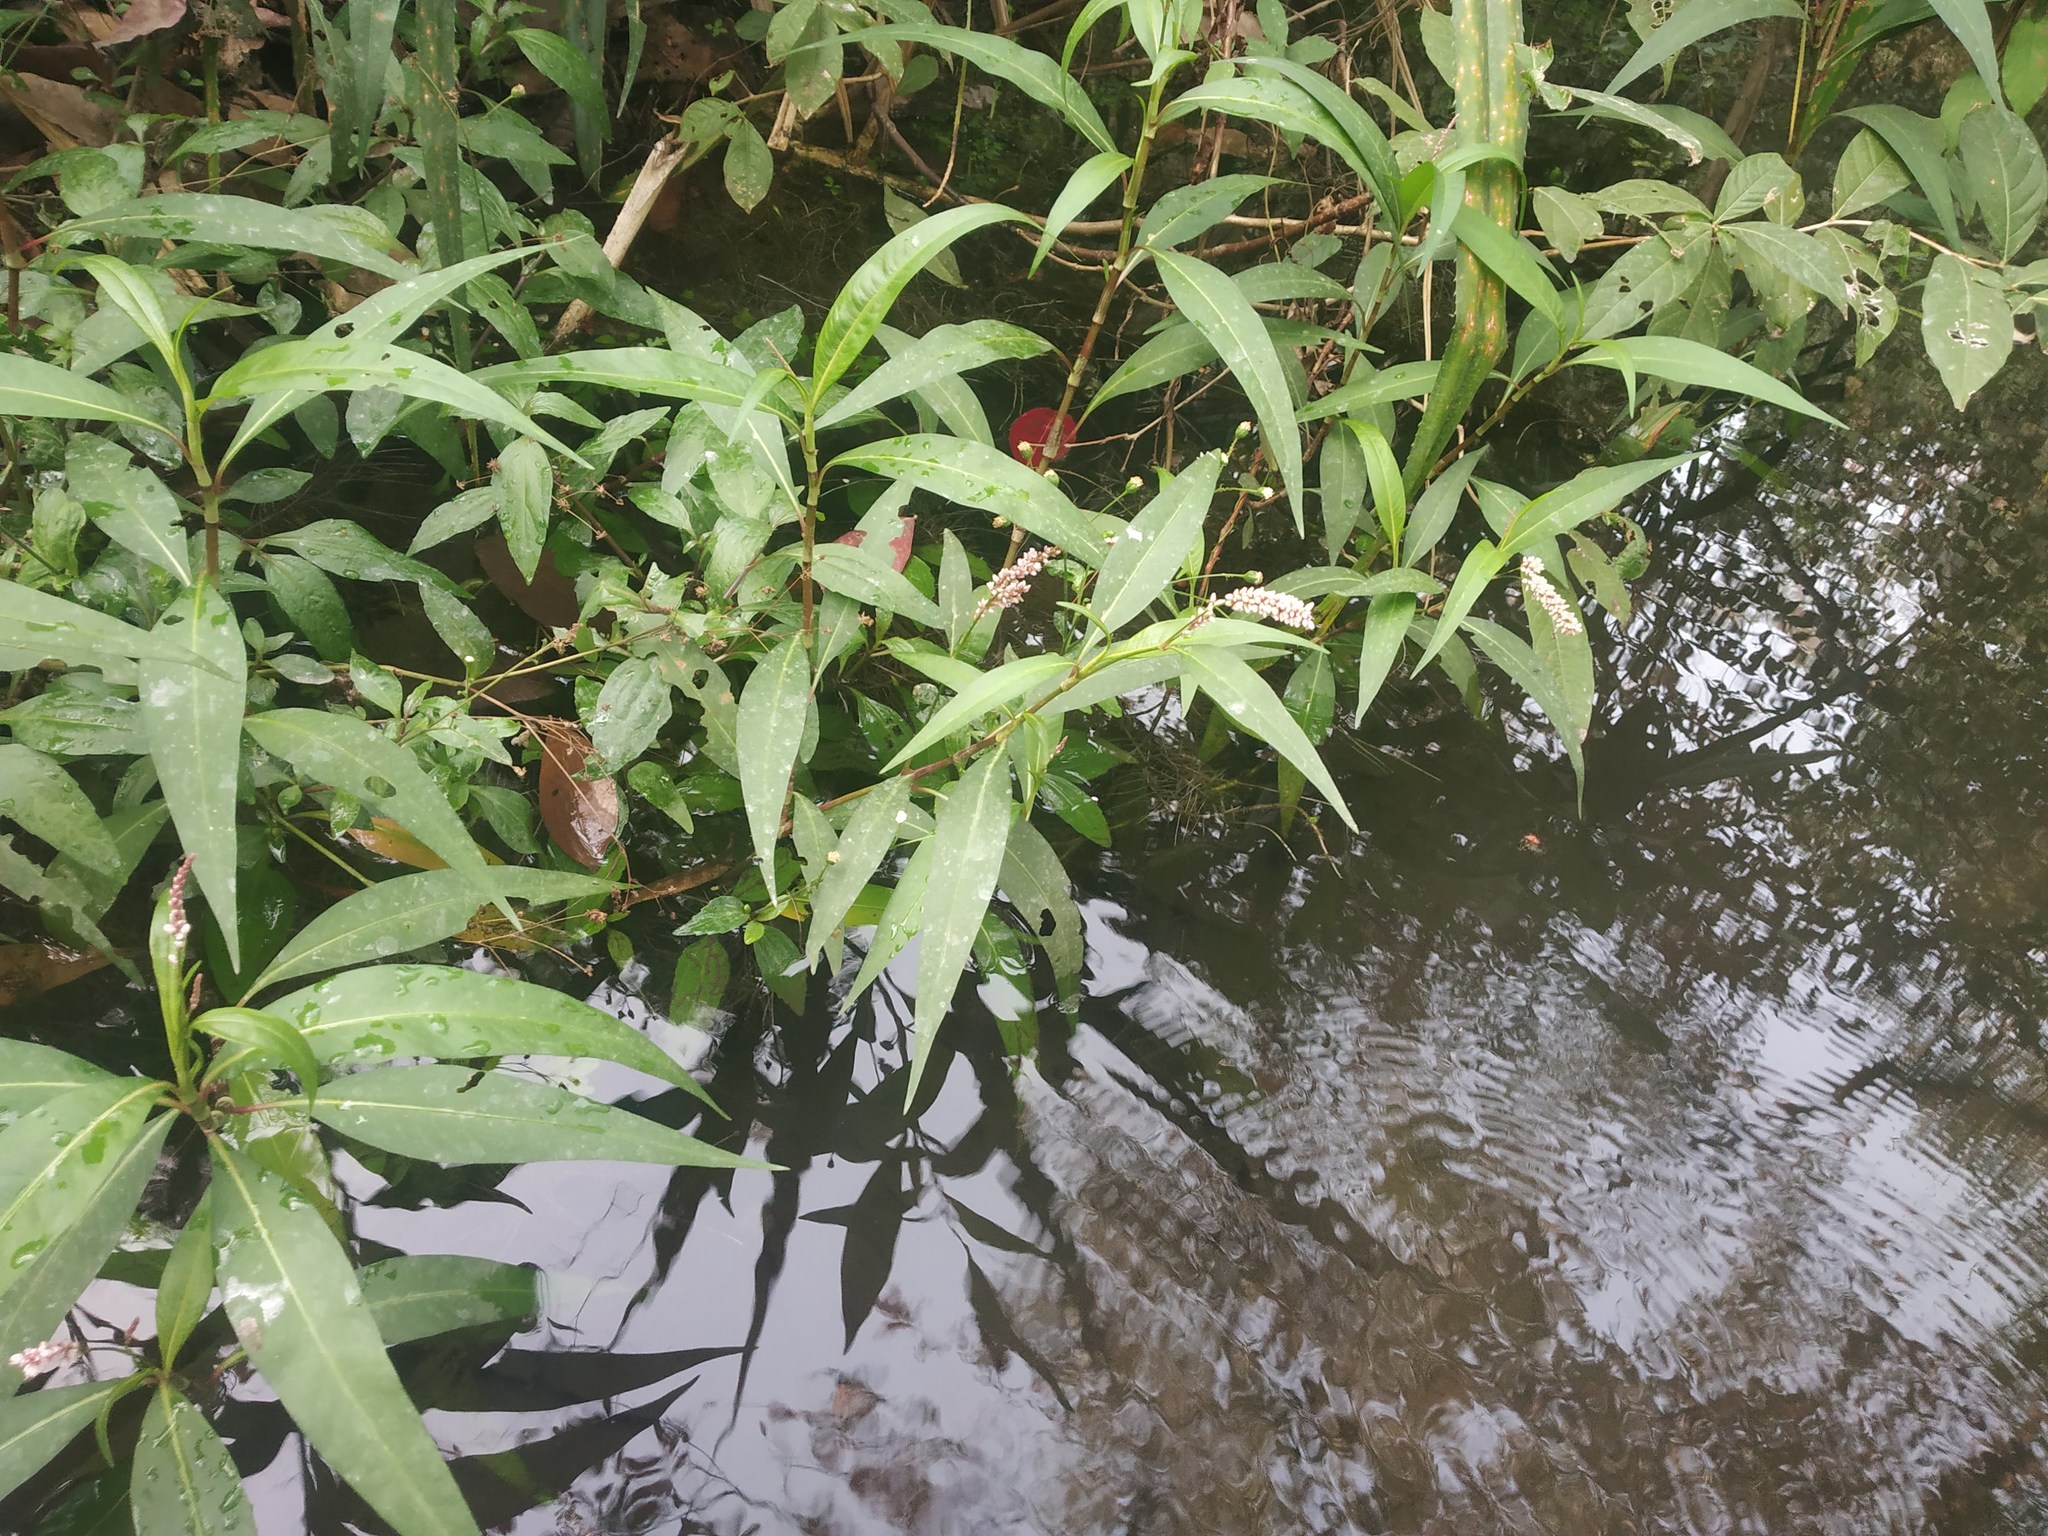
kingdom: Plantae
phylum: Tracheophyta
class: Magnoliopsida
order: Caryophyllales
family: Polygonaceae
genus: Persicaria
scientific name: Persicaria glabra
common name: Denseflower knotweed
